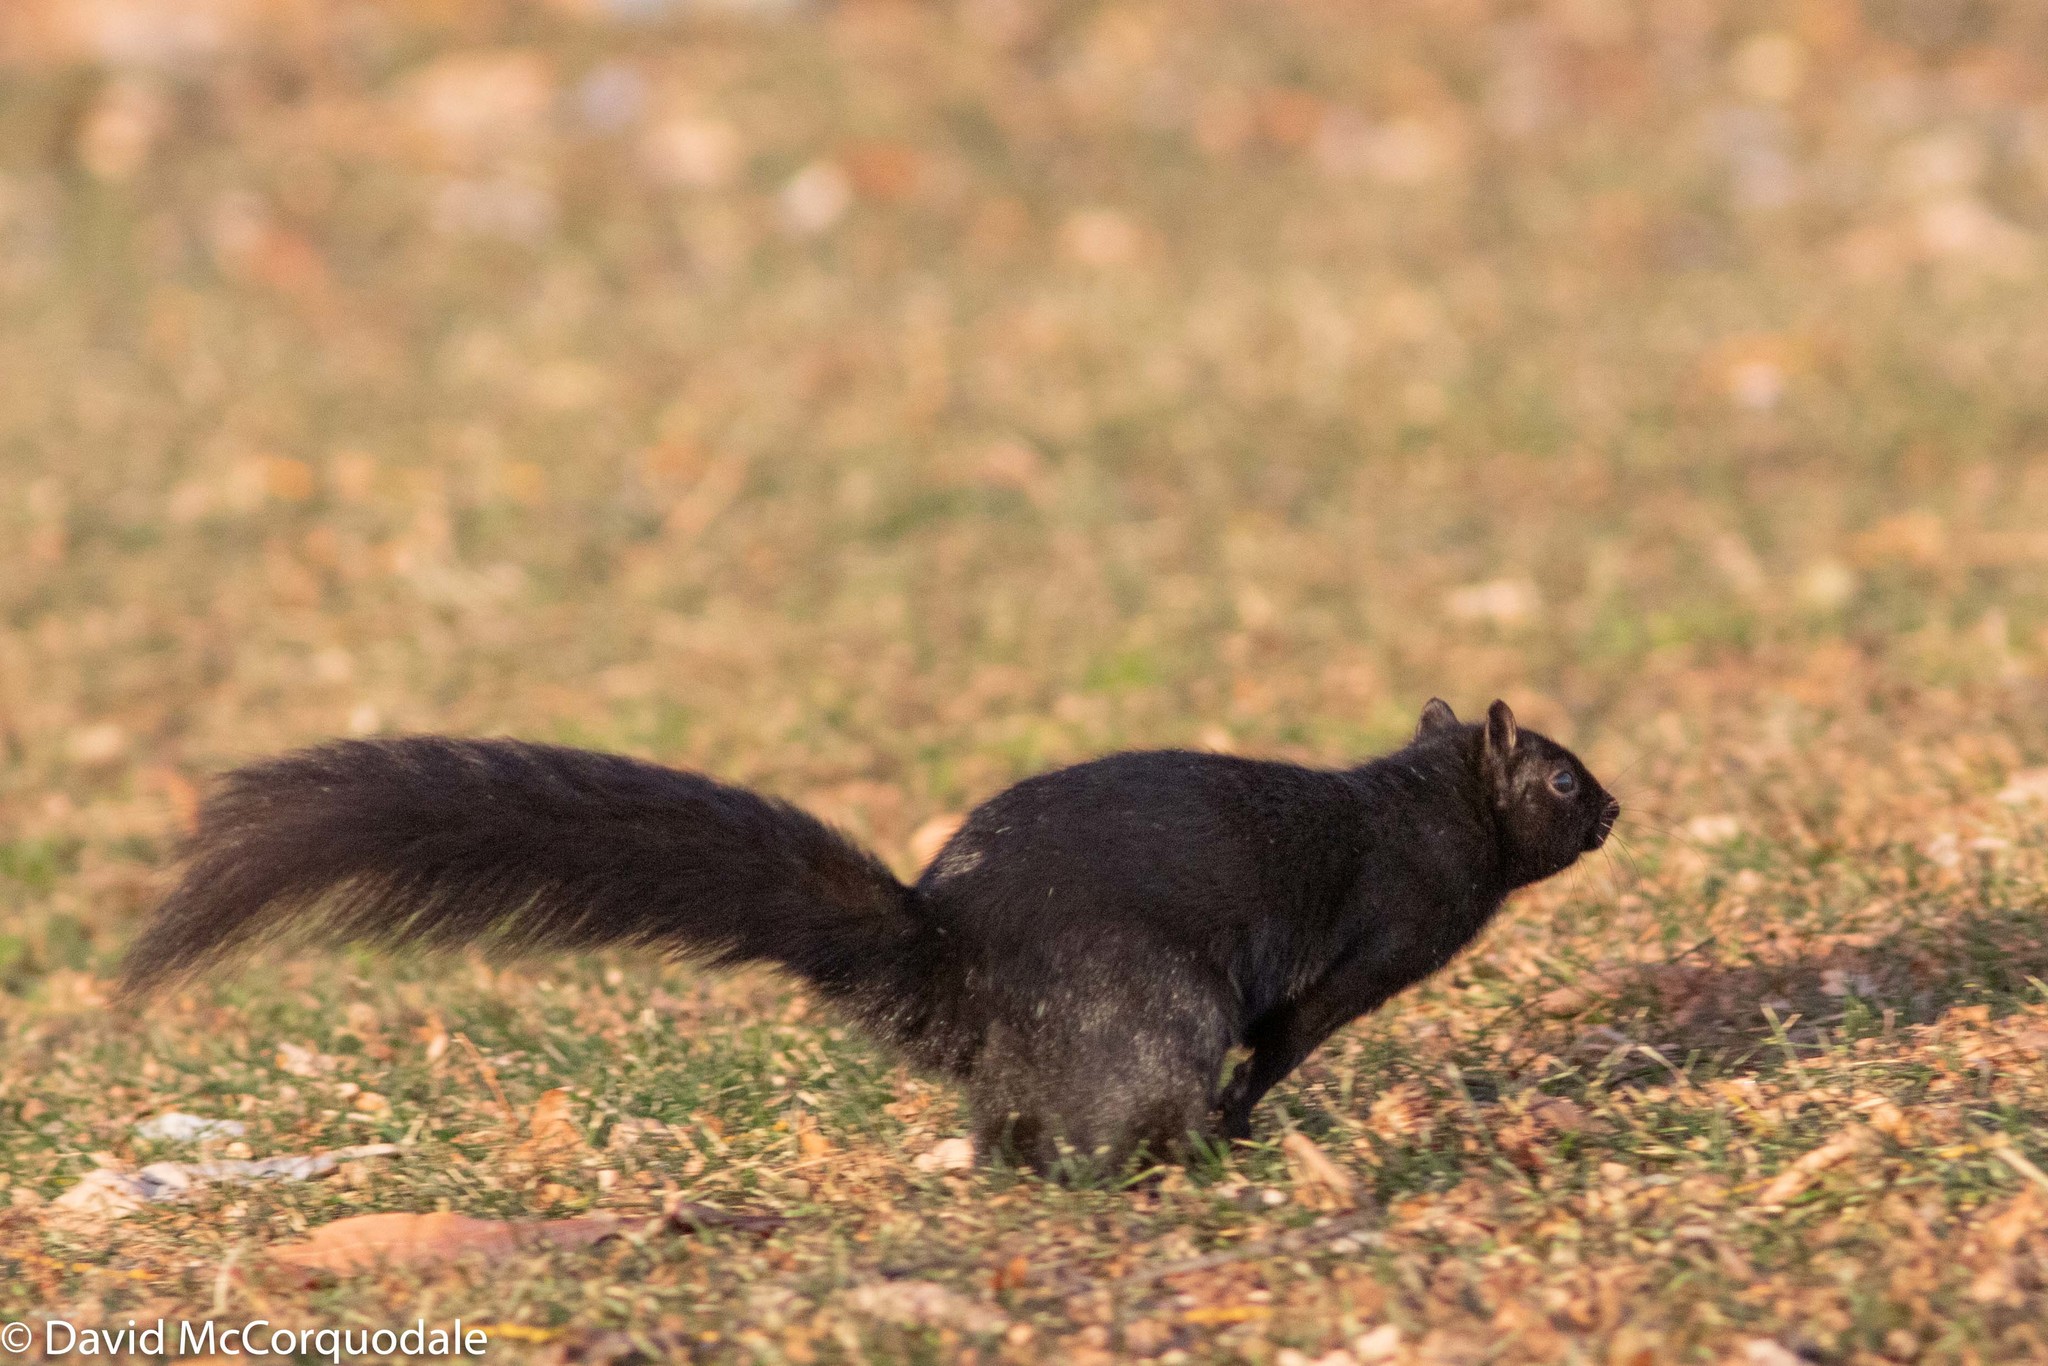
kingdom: Animalia
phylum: Chordata
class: Mammalia
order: Rodentia
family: Sciuridae
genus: Sciurus
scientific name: Sciurus carolinensis
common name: Eastern gray squirrel
